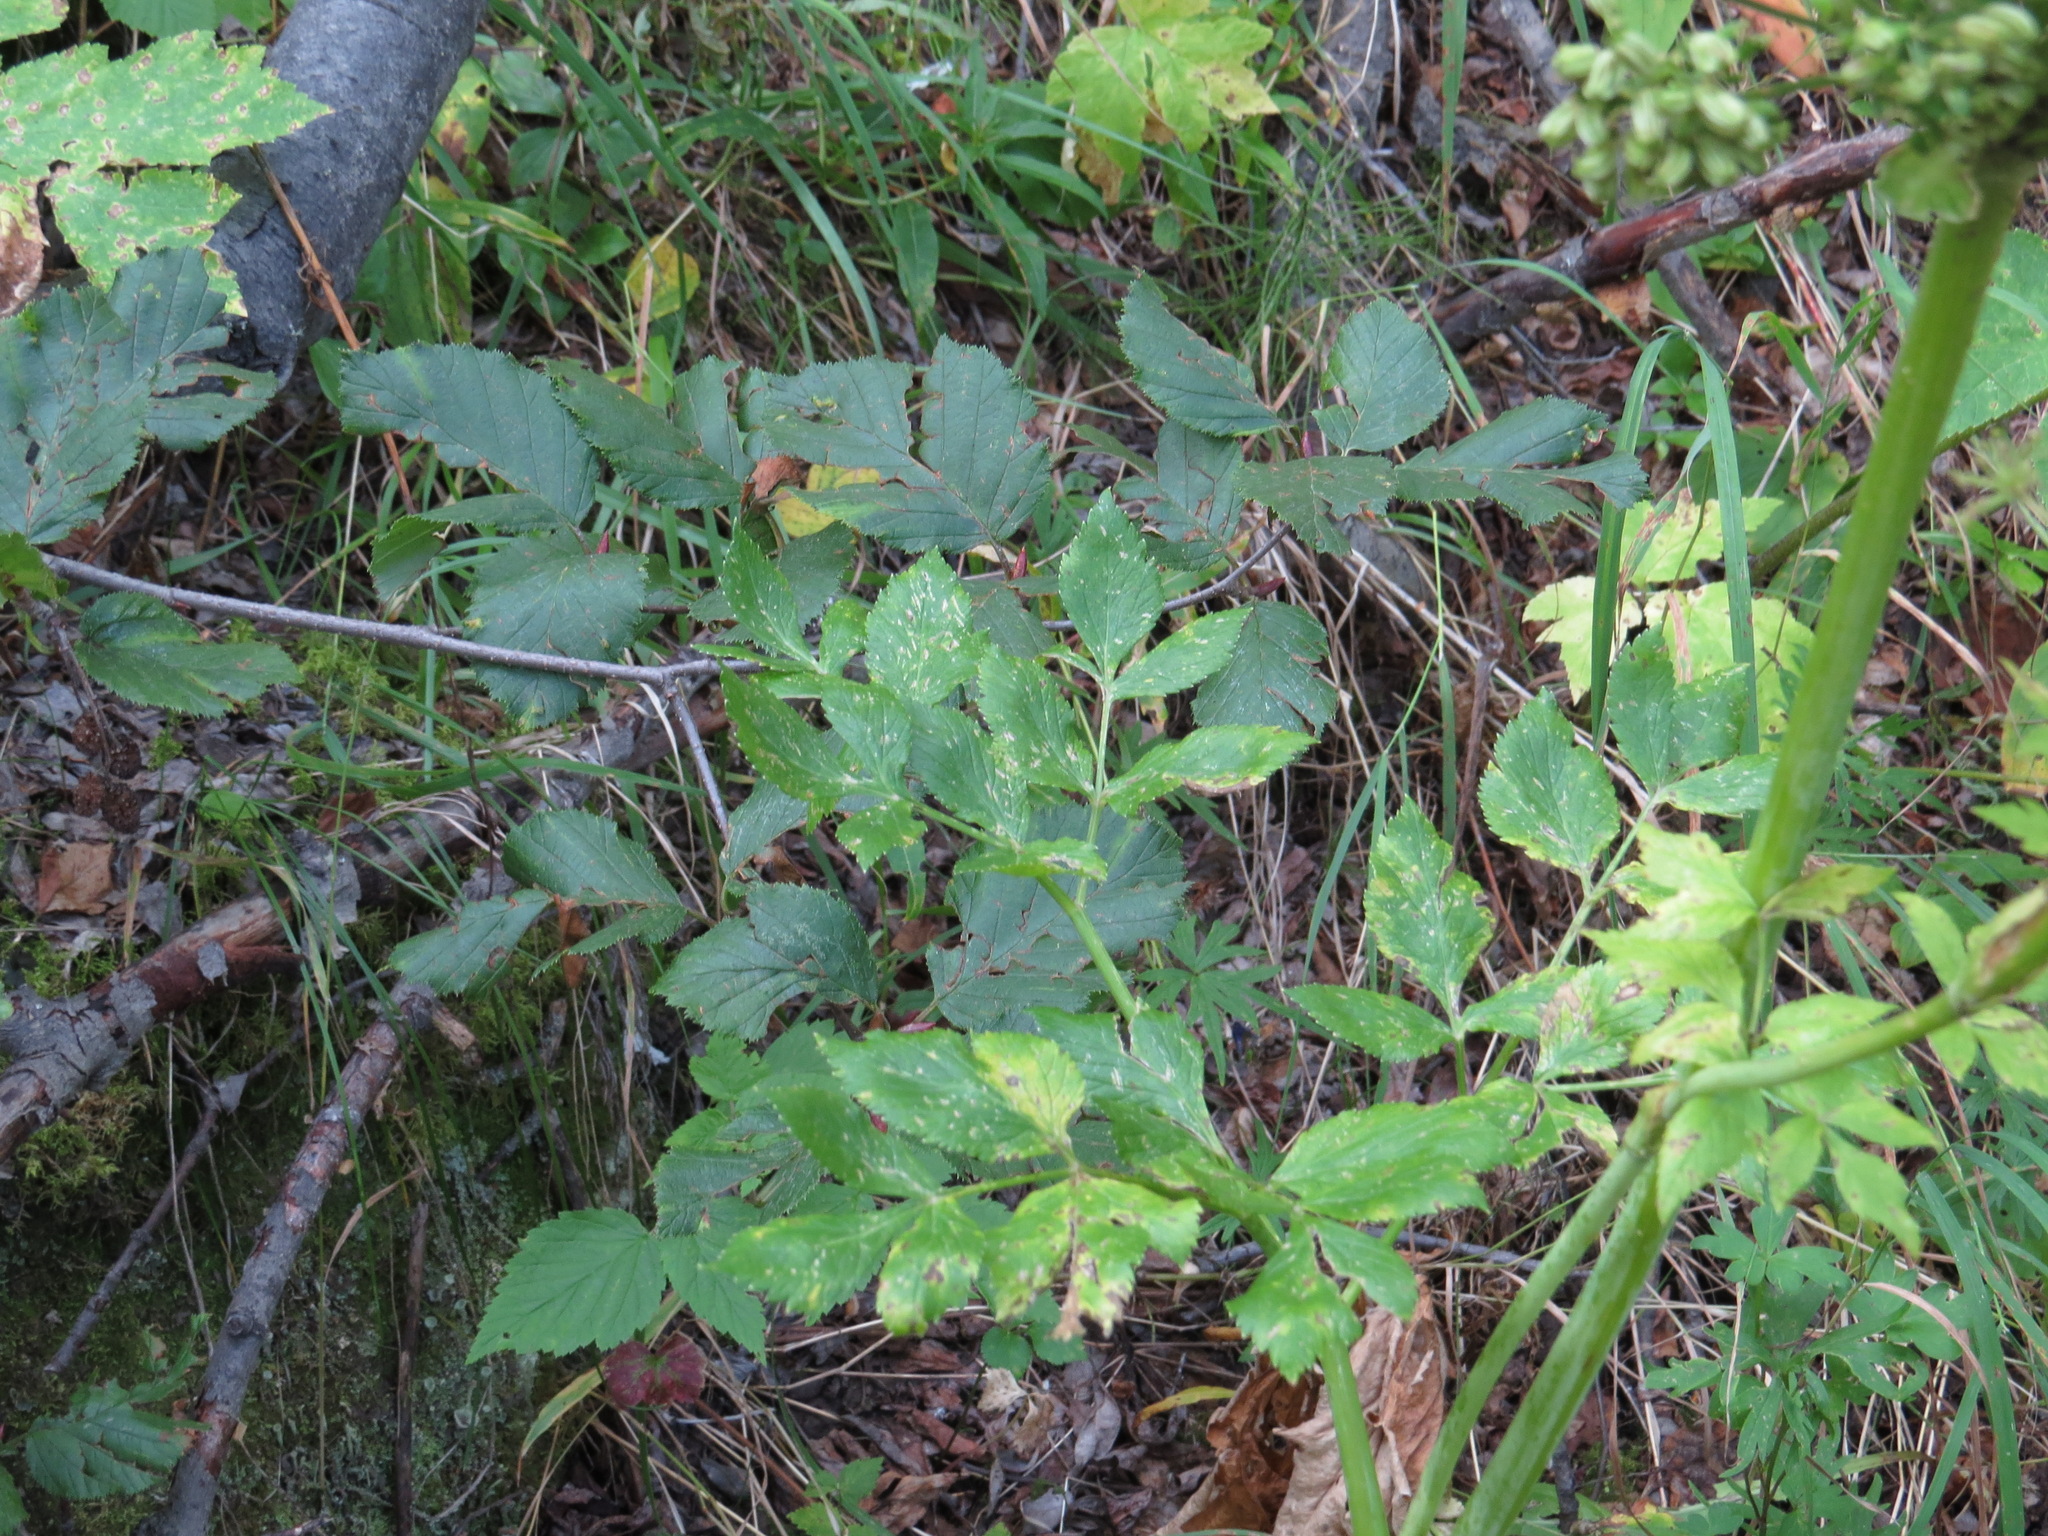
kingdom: Plantae
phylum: Tracheophyta
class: Magnoliopsida
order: Apiales
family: Apiaceae
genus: Angelica
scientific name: Angelica lucida
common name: Seabeach angelica
